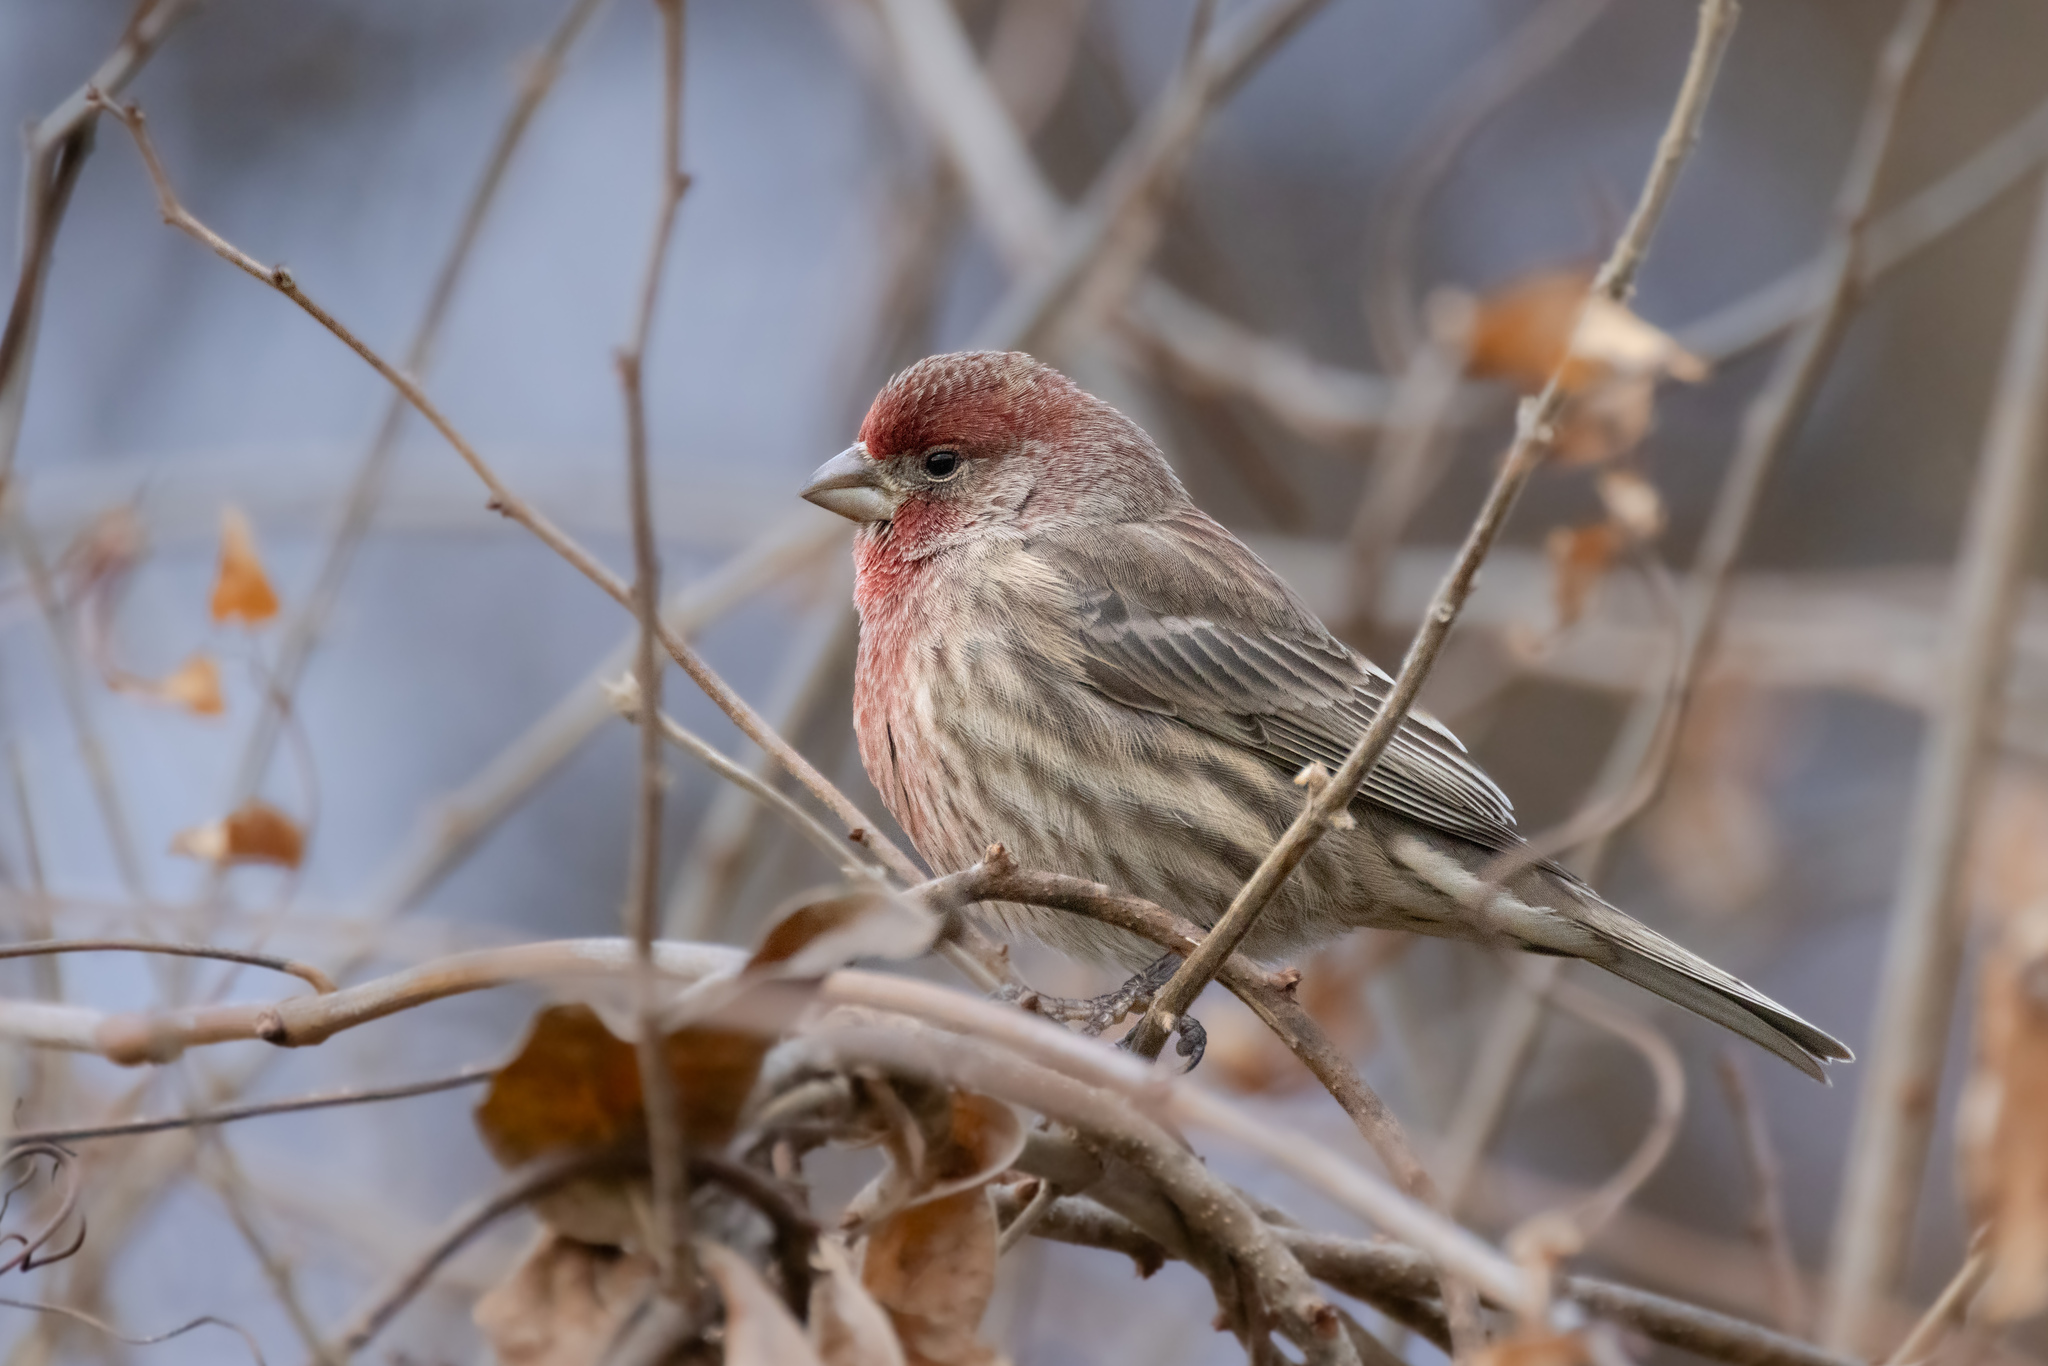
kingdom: Animalia
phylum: Chordata
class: Aves
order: Passeriformes
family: Fringillidae
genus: Haemorhous
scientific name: Haemorhous mexicanus
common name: House finch
